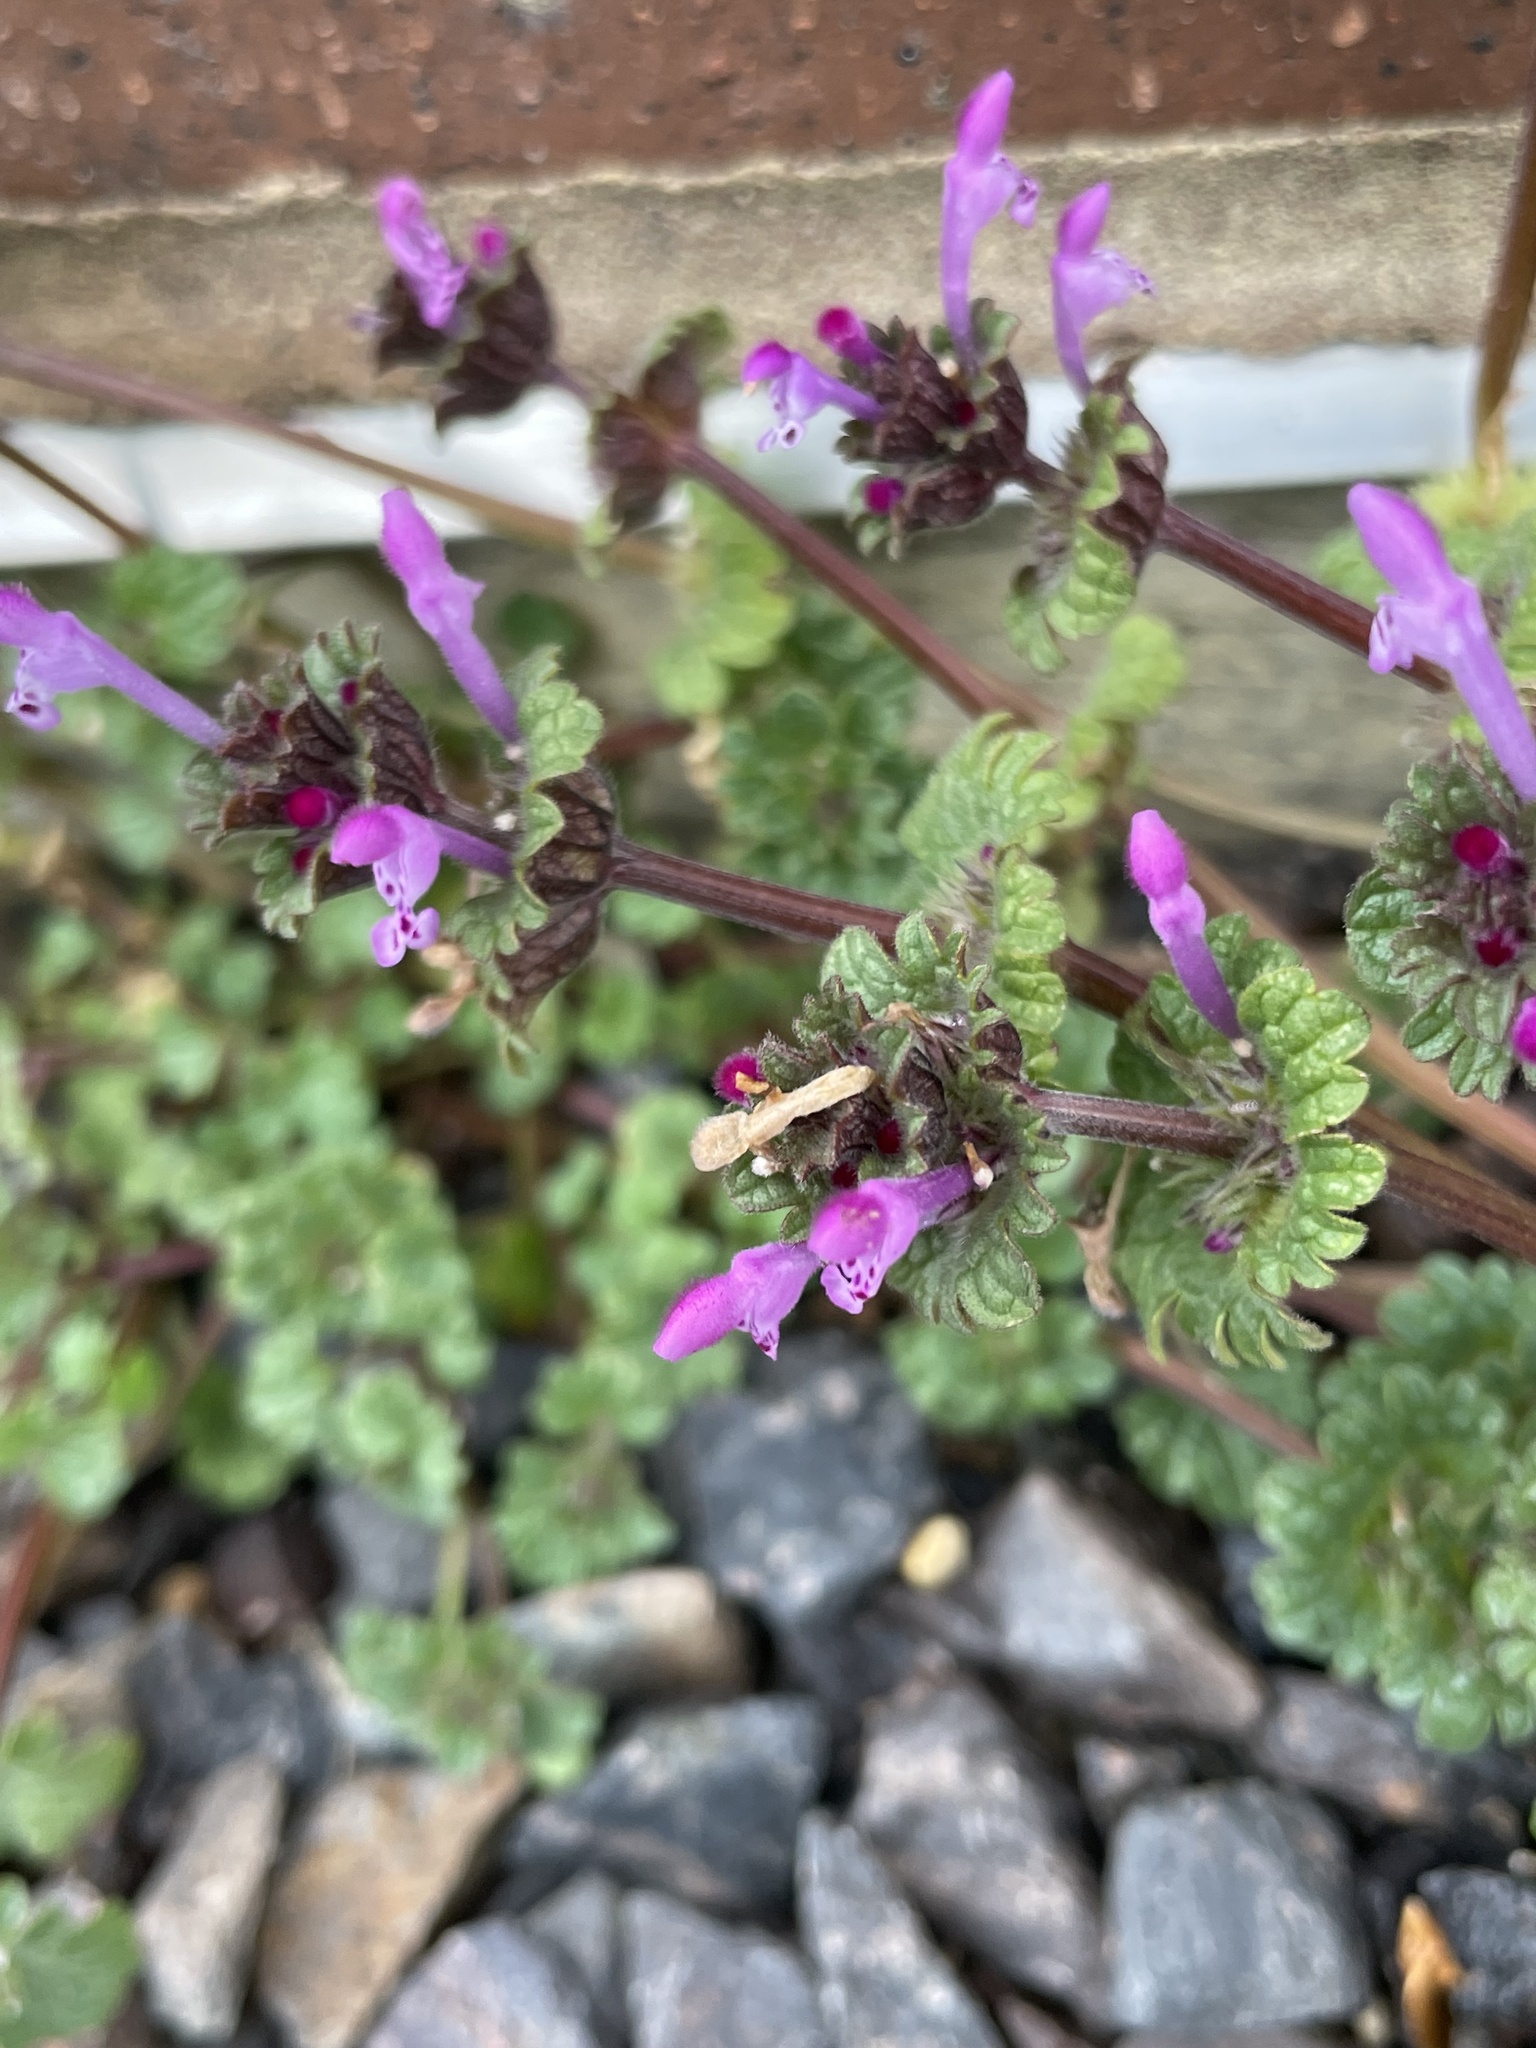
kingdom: Plantae
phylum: Tracheophyta
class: Magnoliopsida
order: Lamiales
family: Lamiaceae
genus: Lamium
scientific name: Lamium amplexicaule
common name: Henbit dead-nettle
